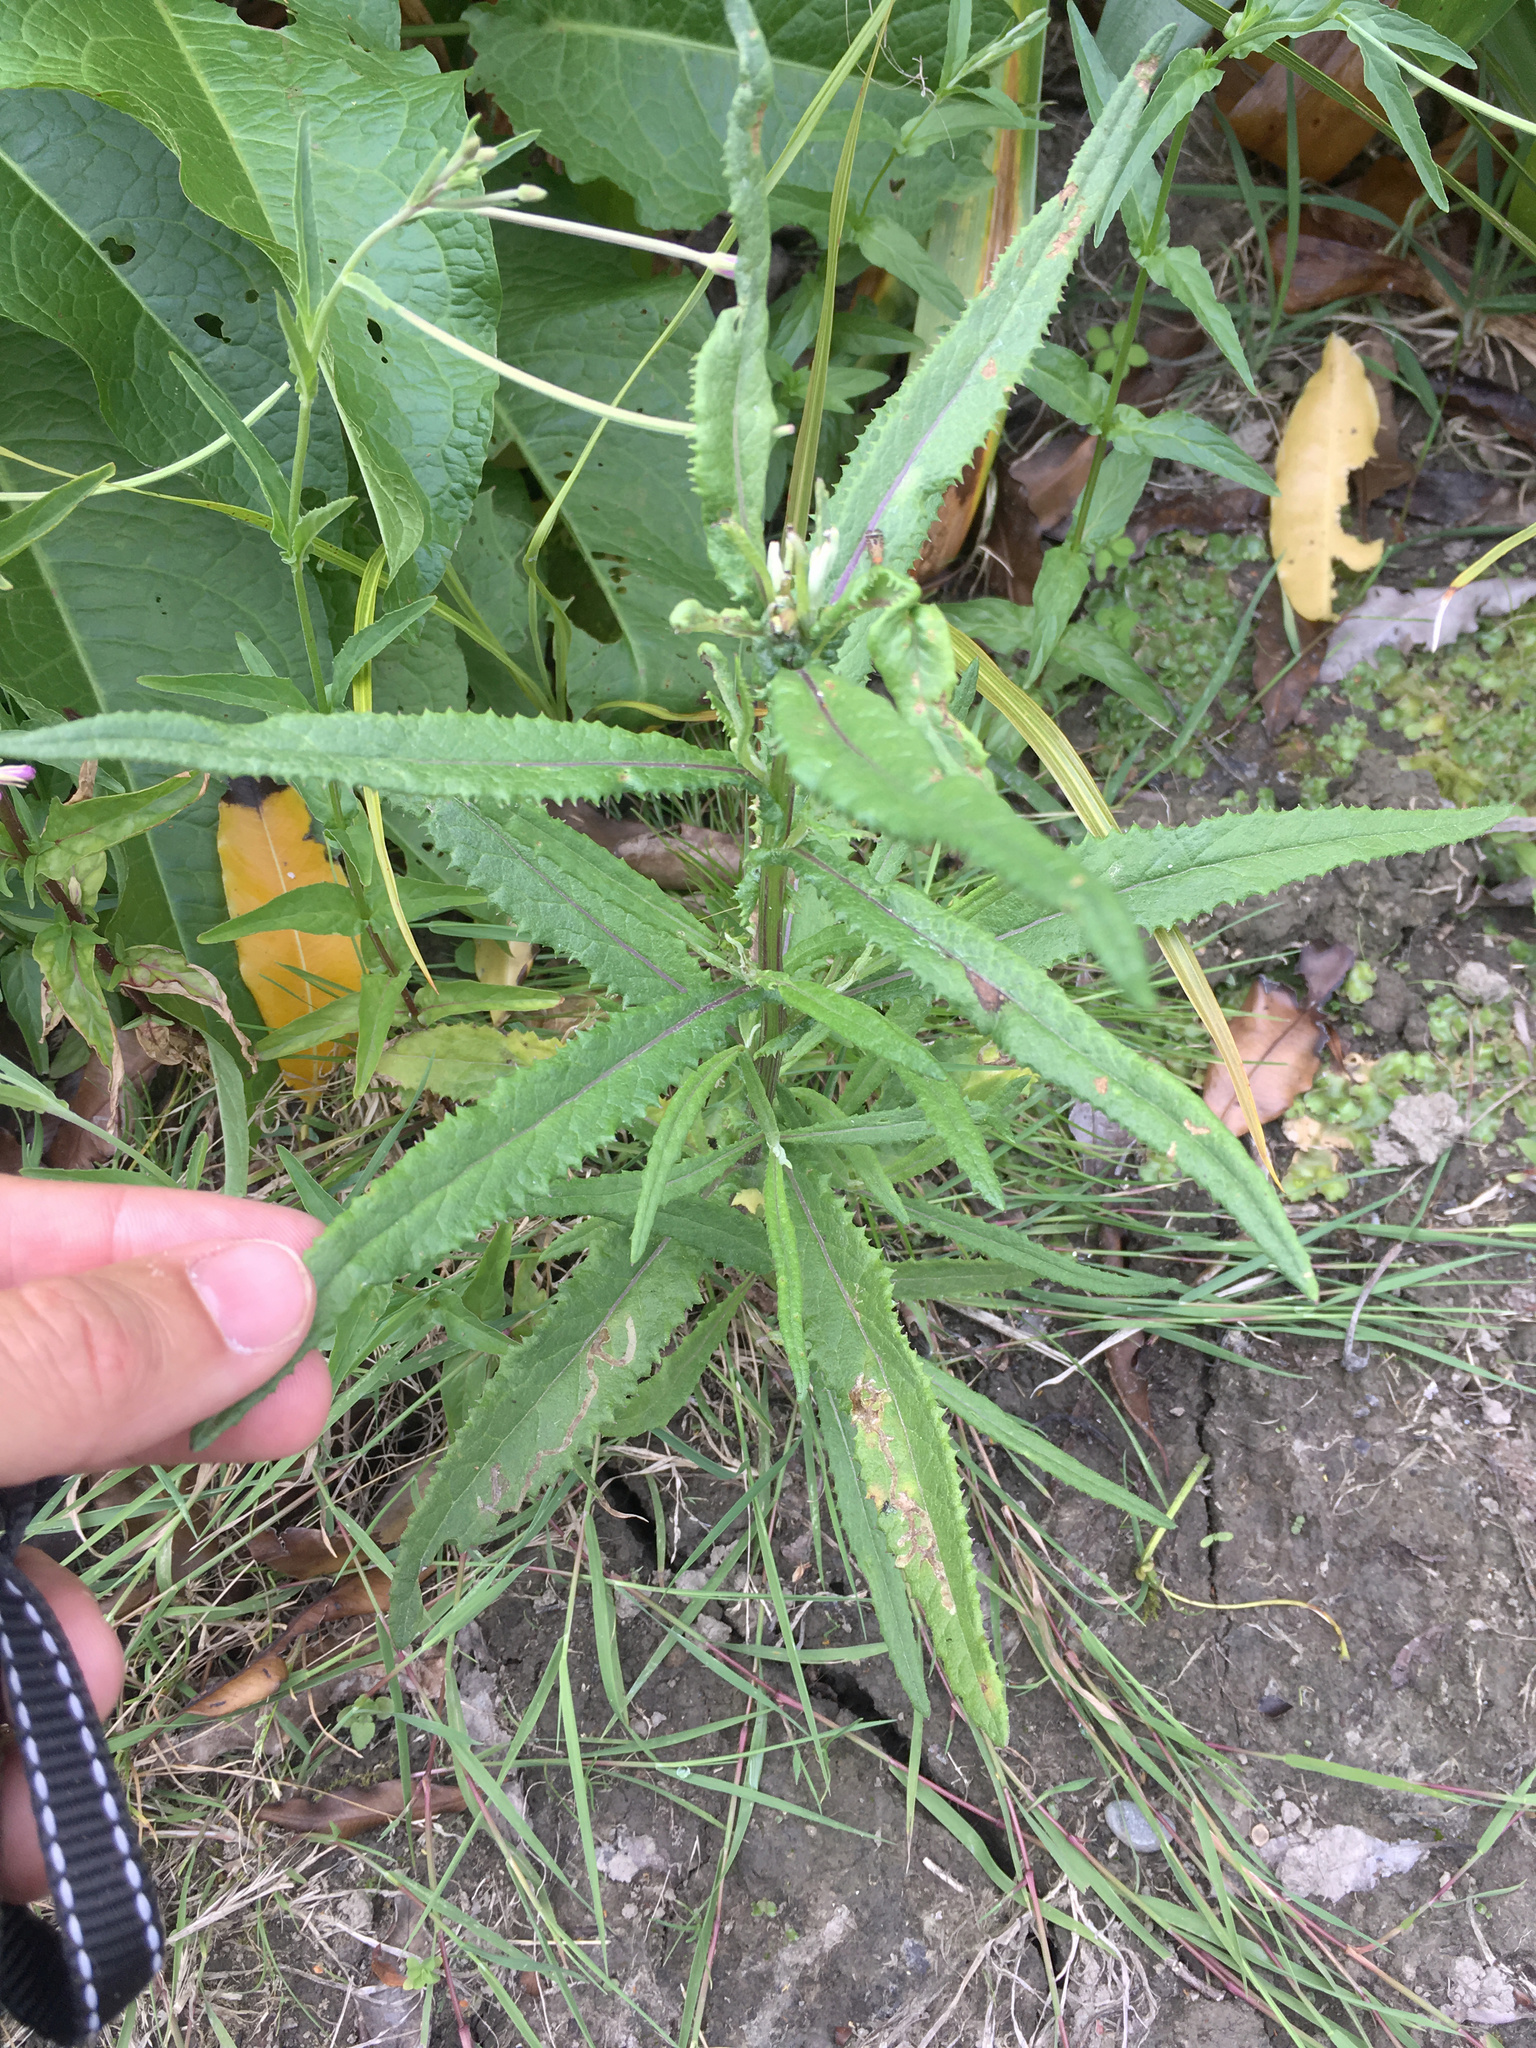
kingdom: Plantae
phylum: Tracheophyta
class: Magnoliopsida
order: Asterales
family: Asteraceae
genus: Senecio
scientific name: Senecio minimus
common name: Toothed fireweed
